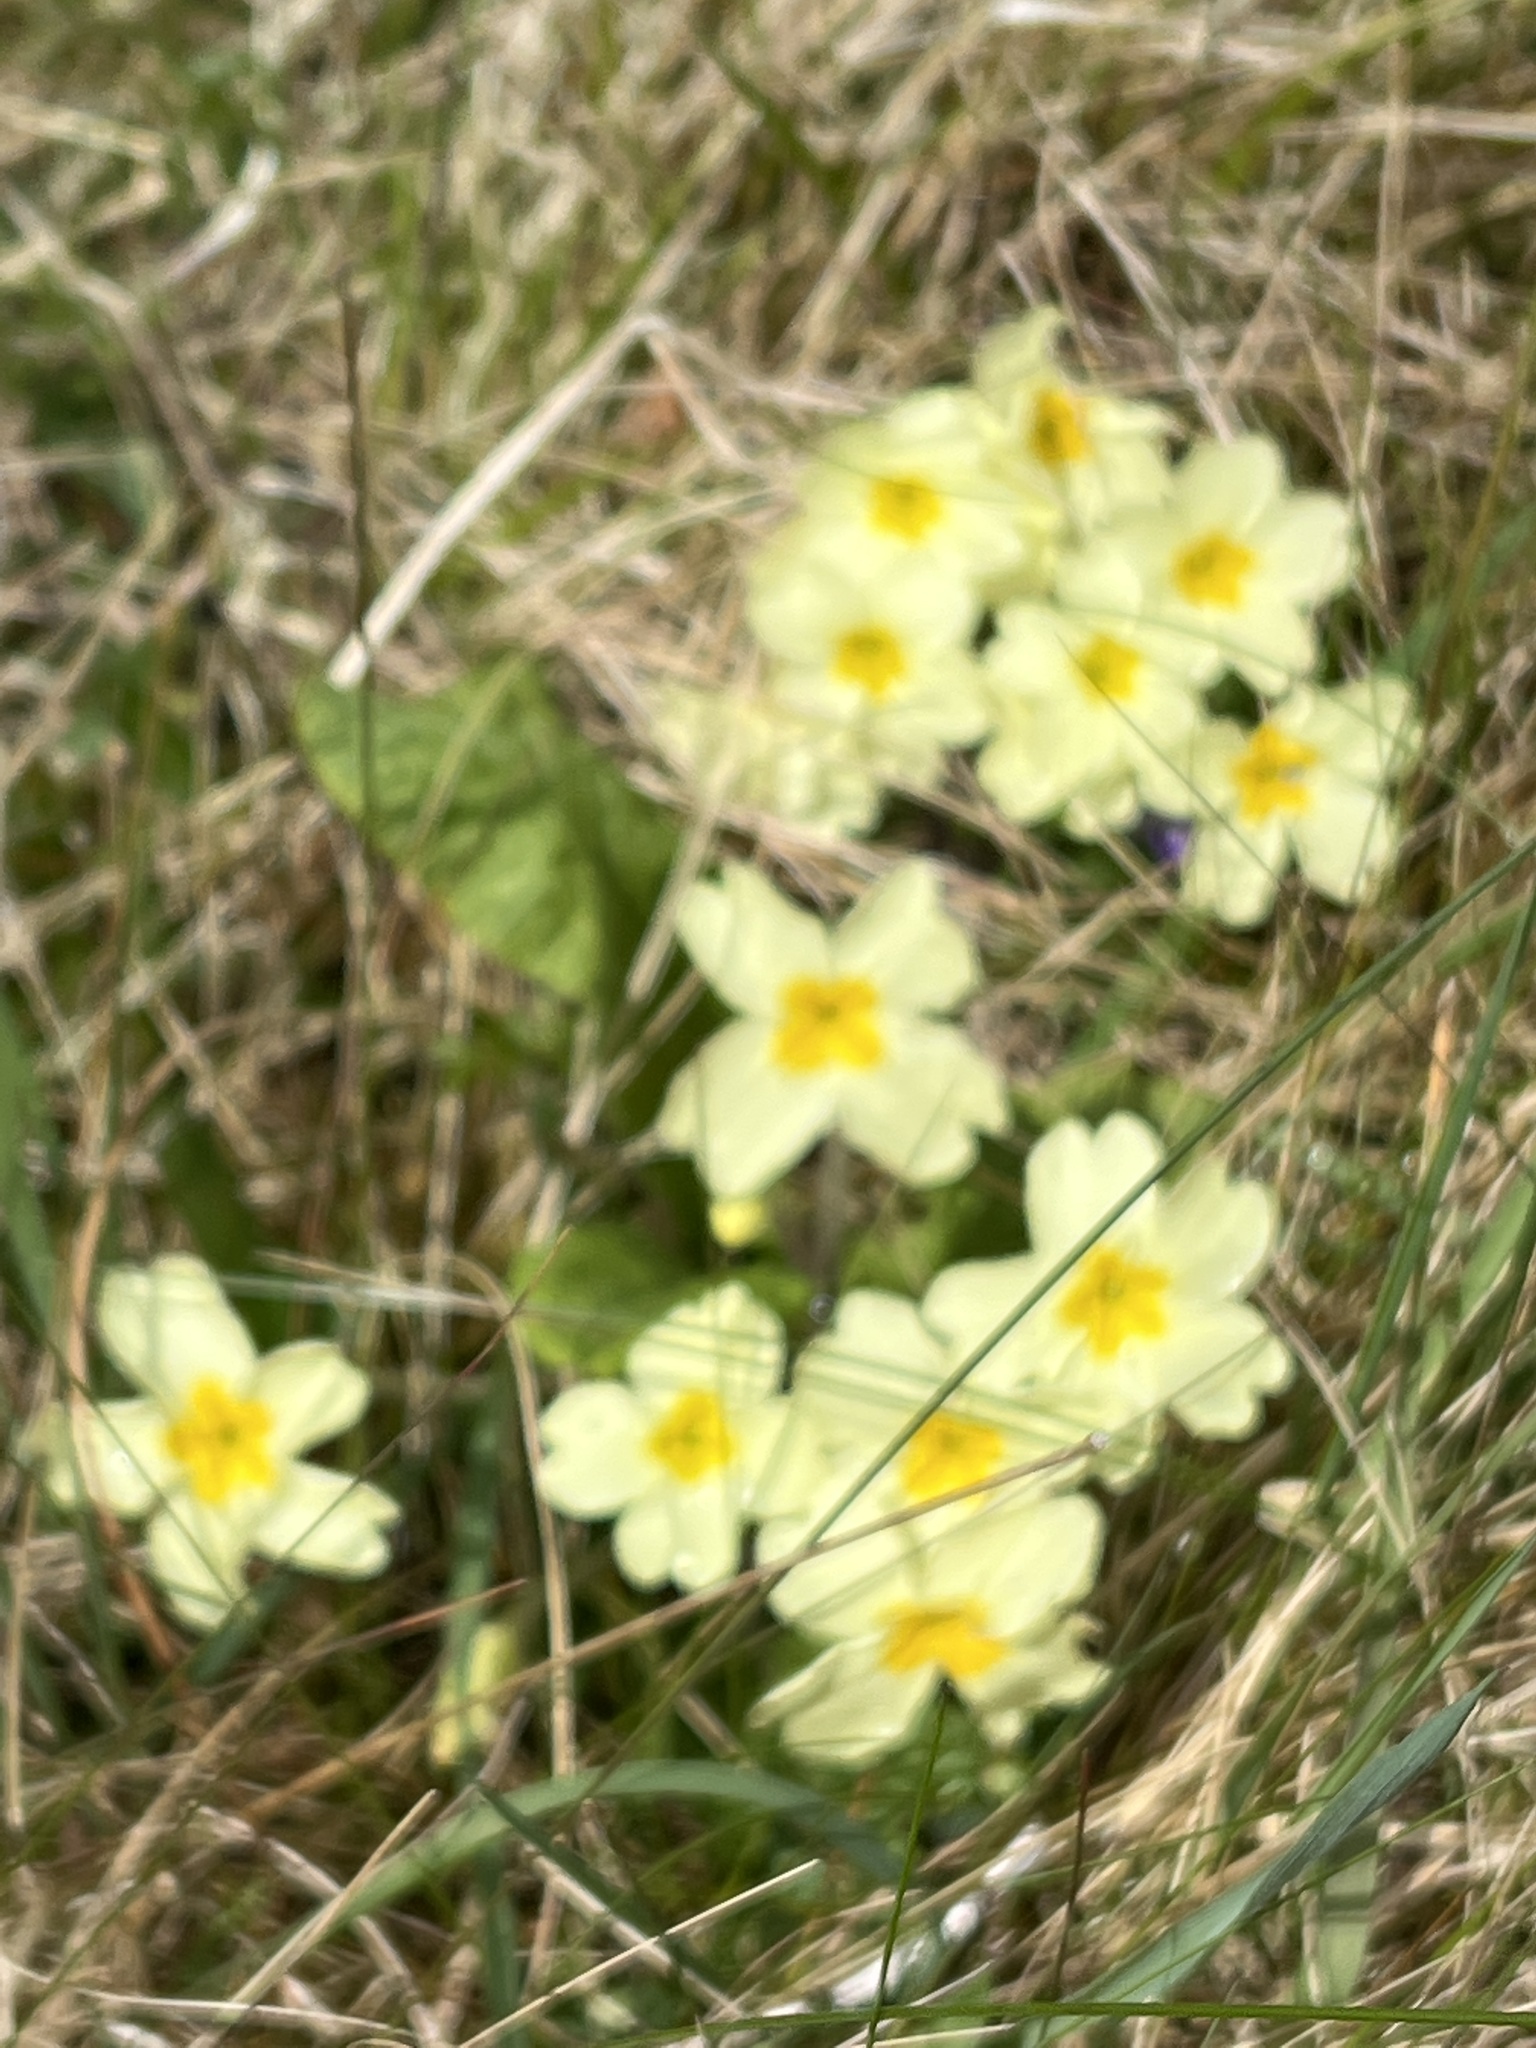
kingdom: Plantae
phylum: Tracheophyta
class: Magnoliopsida
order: Ericales
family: Primulaceae
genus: Primula
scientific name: Primula vulgaris
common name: Primrose
